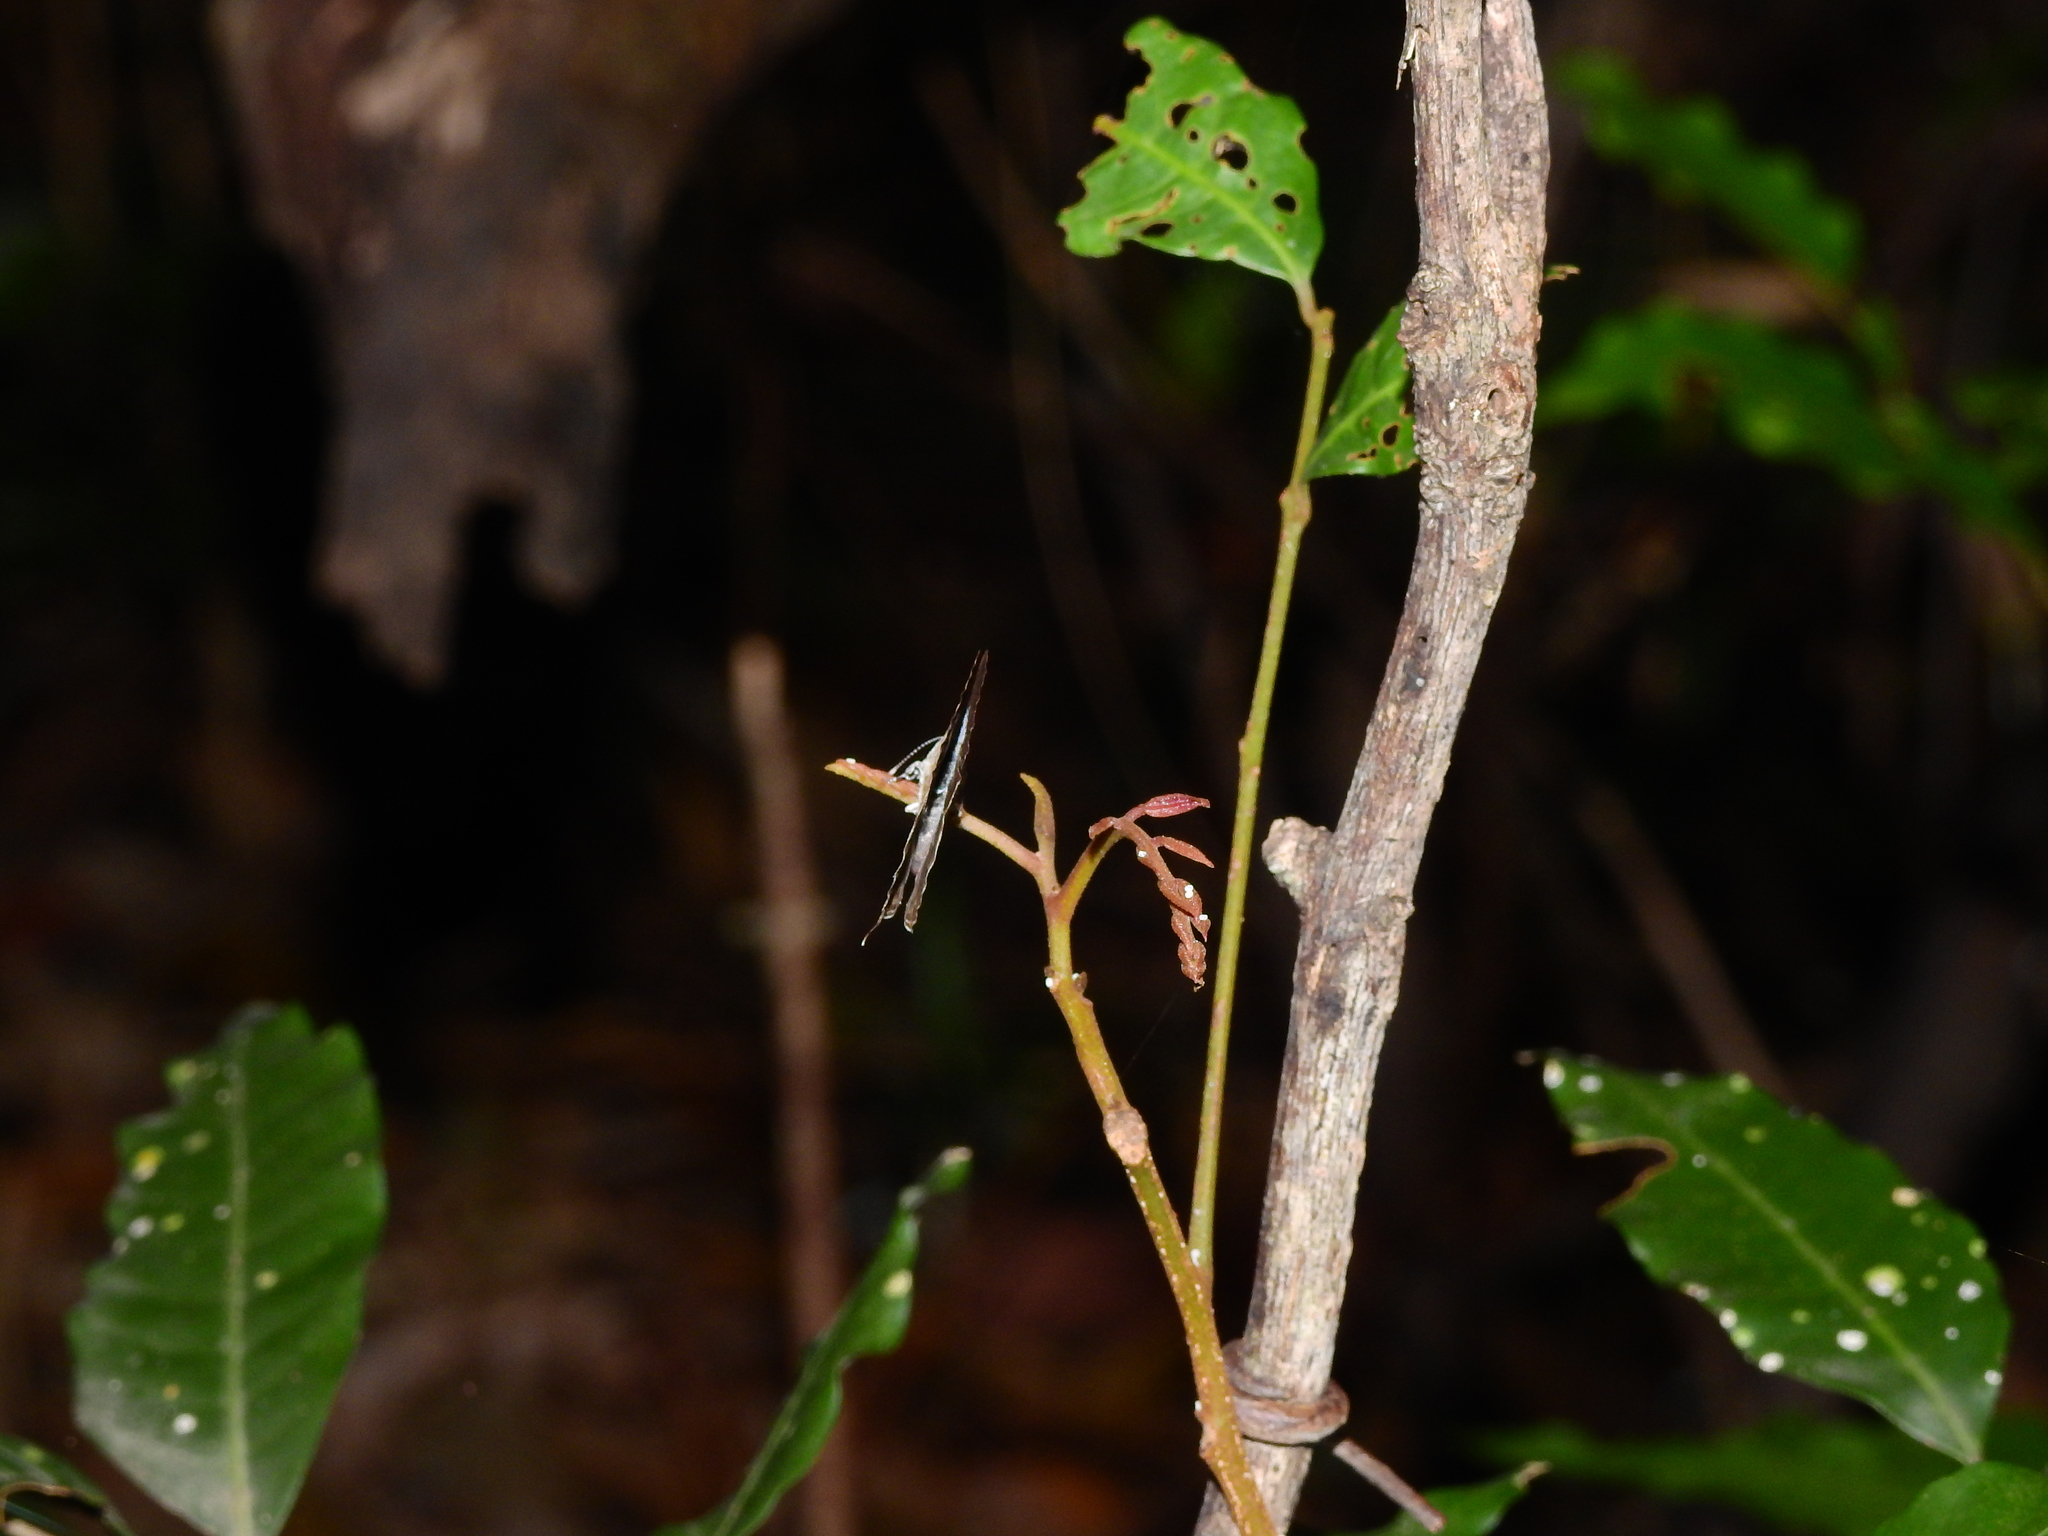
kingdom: Animalia
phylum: Arthropoda
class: Insecta
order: Lepidoptera
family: Lycaenidae
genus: Nacaduba
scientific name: Nacaduba sinhala
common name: Pale ceylon line blue
